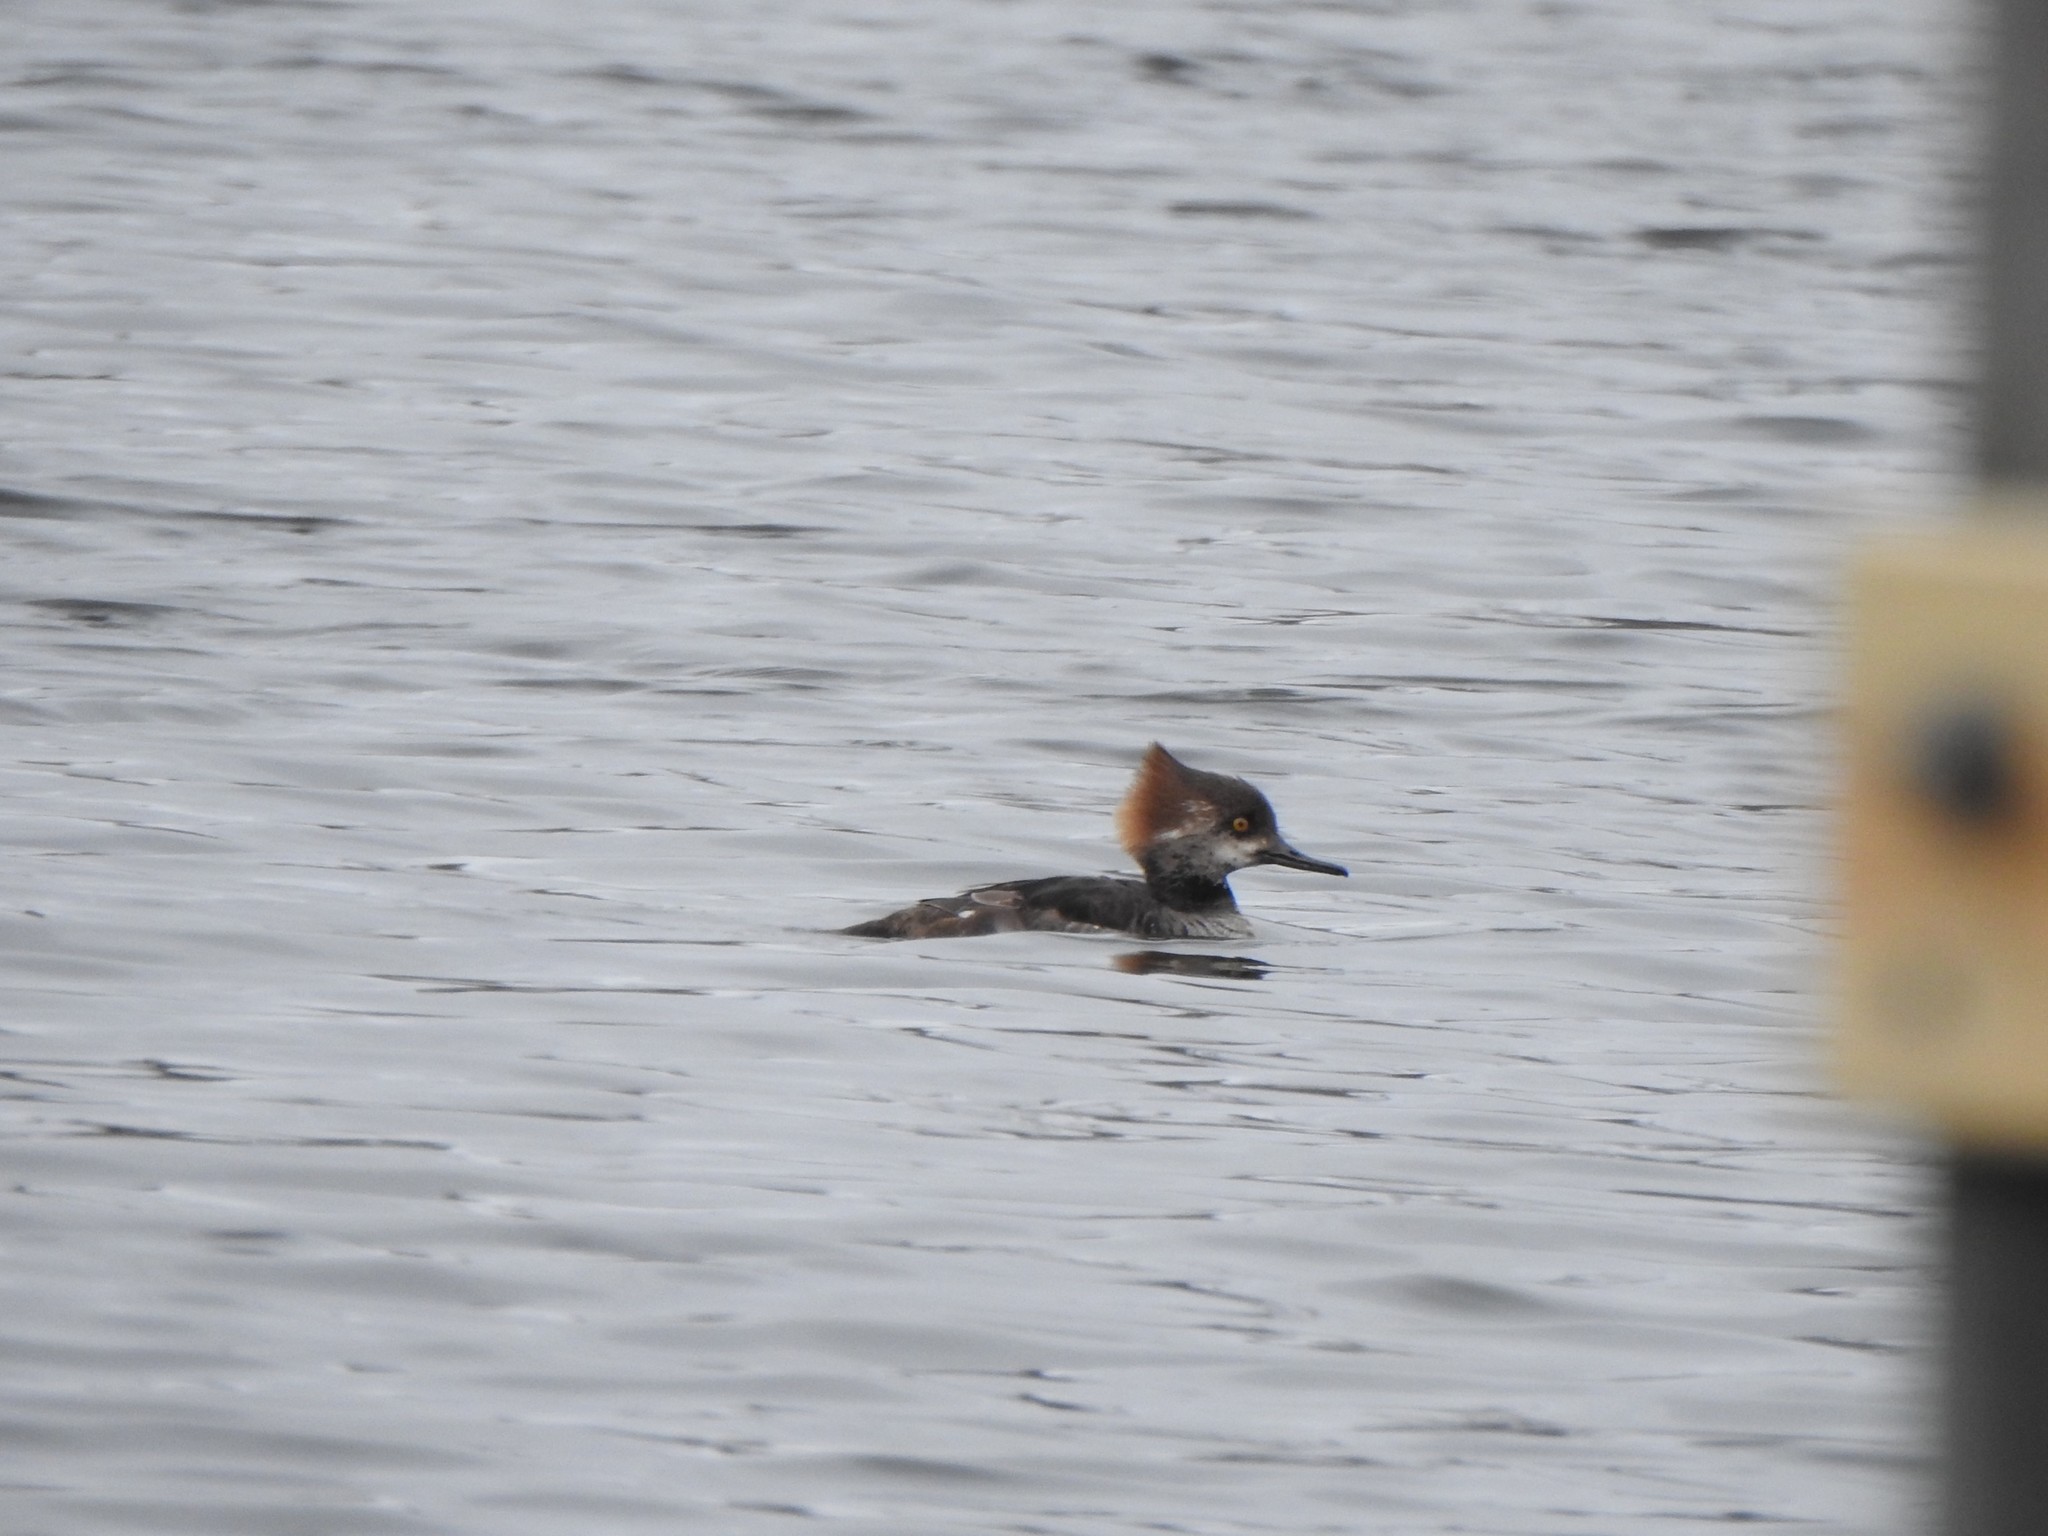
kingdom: Animalia
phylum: Chordata
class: Aves
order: Anseriformes
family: Anatidae
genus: Lophodytes
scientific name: Lophodytes cucullatus
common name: Hooded merganser
